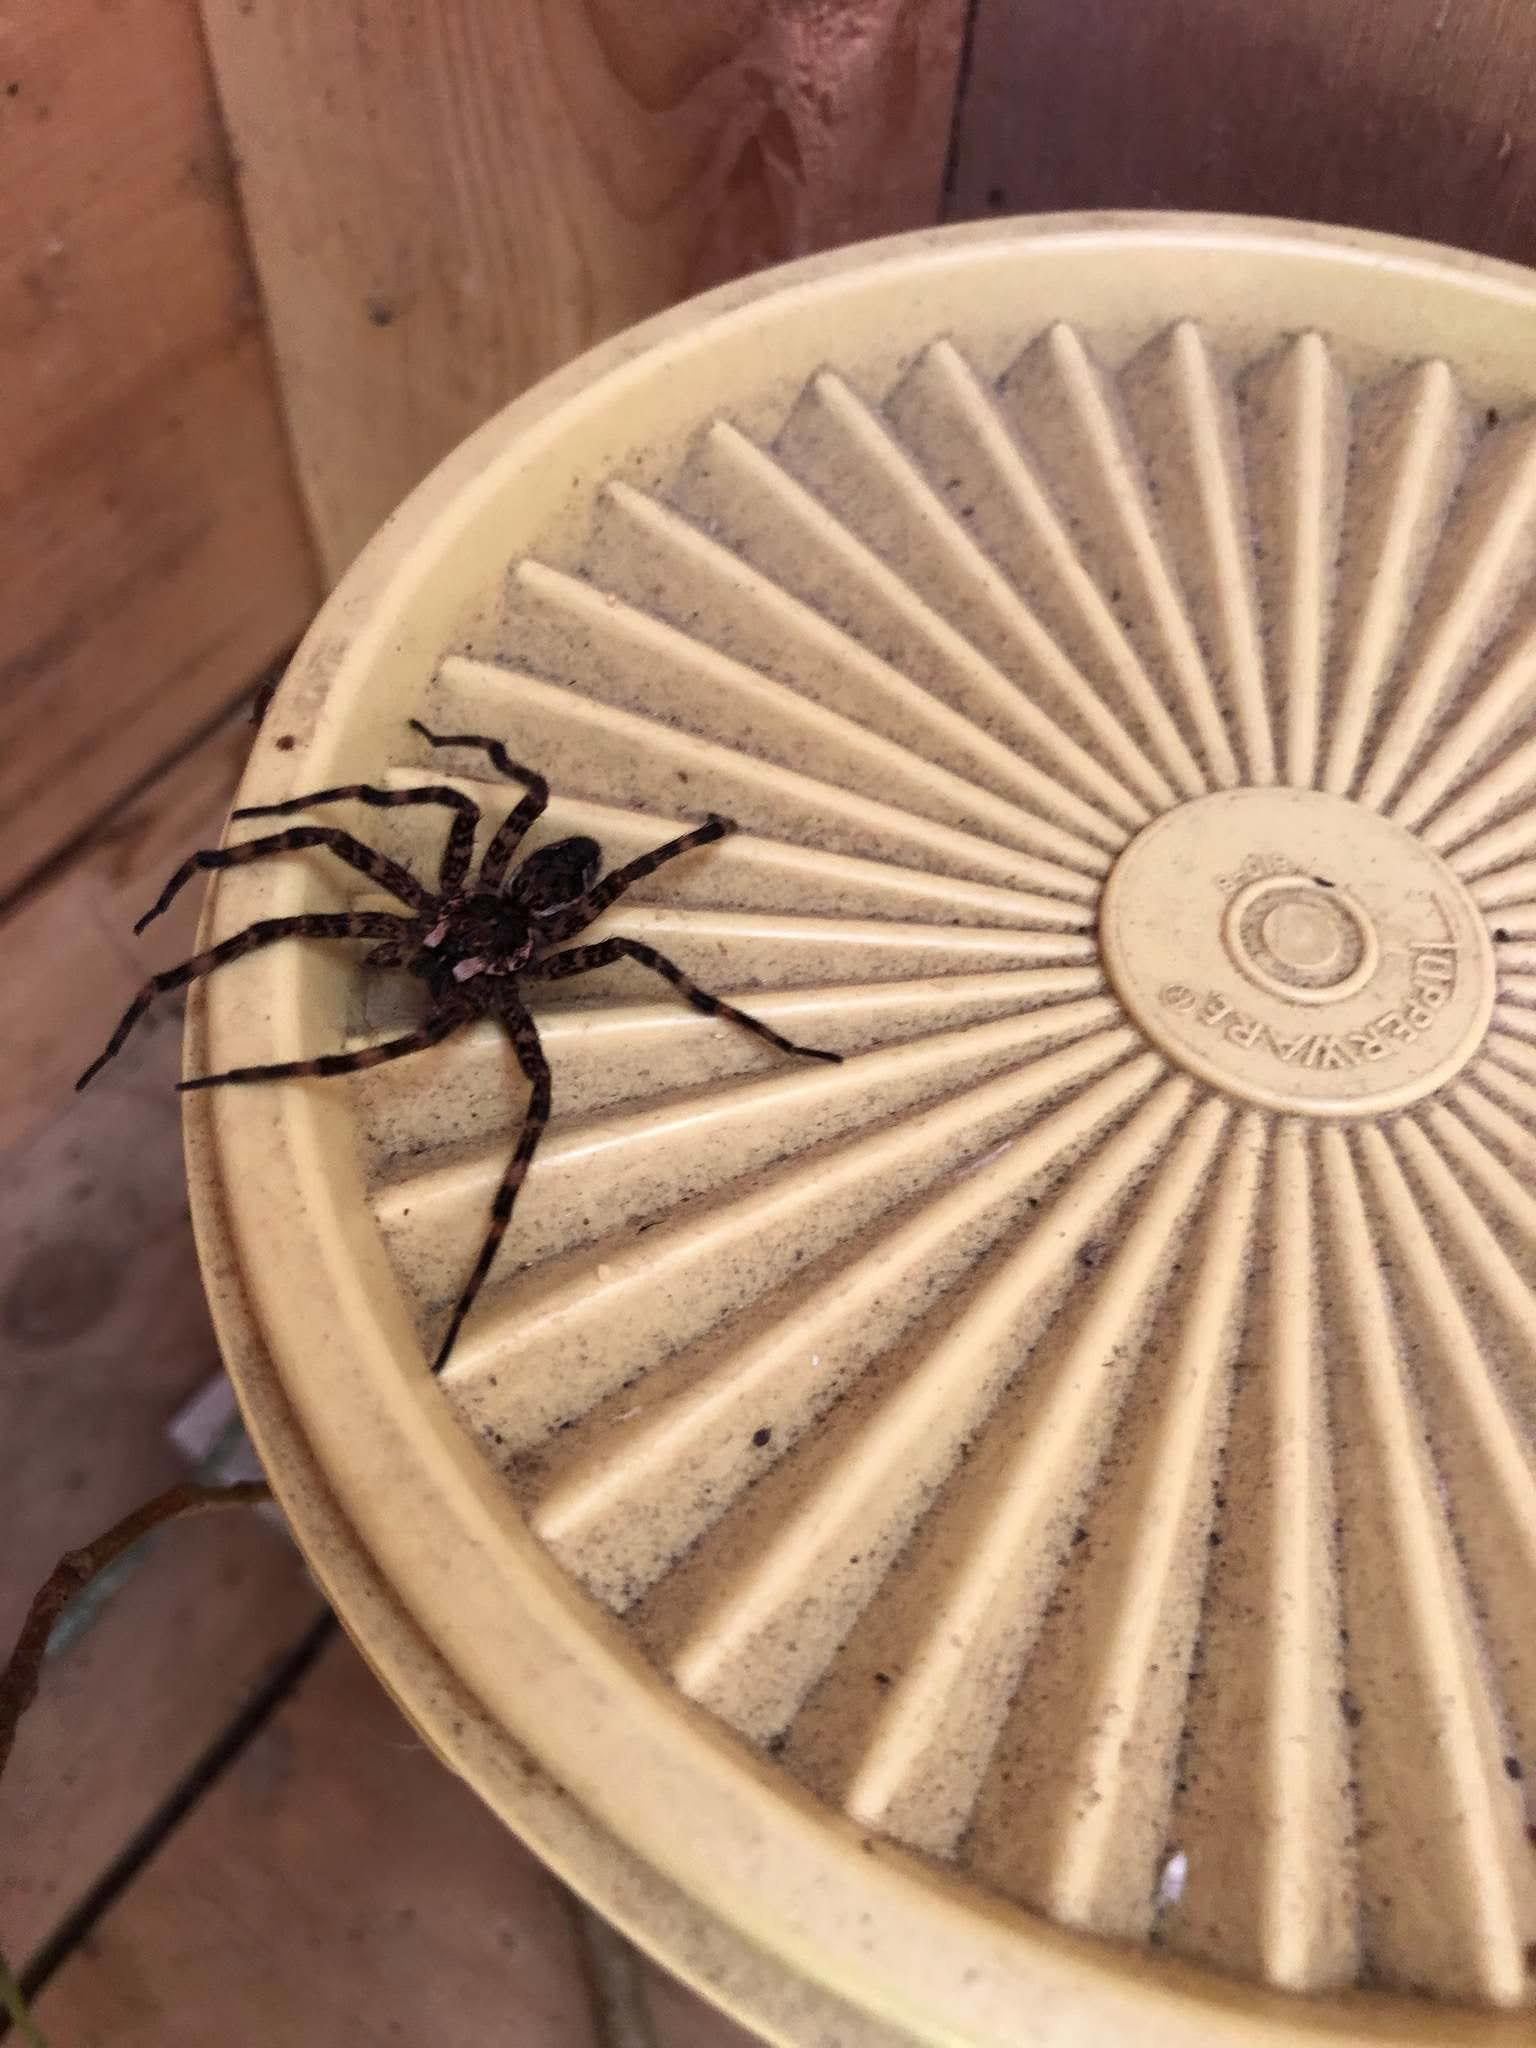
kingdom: Animalia
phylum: Arthropoda
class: Arachnida
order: Araneae
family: Pisauridae
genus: Dolomedes
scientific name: Dolomedes tenebrosus
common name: Dark fishing spider
